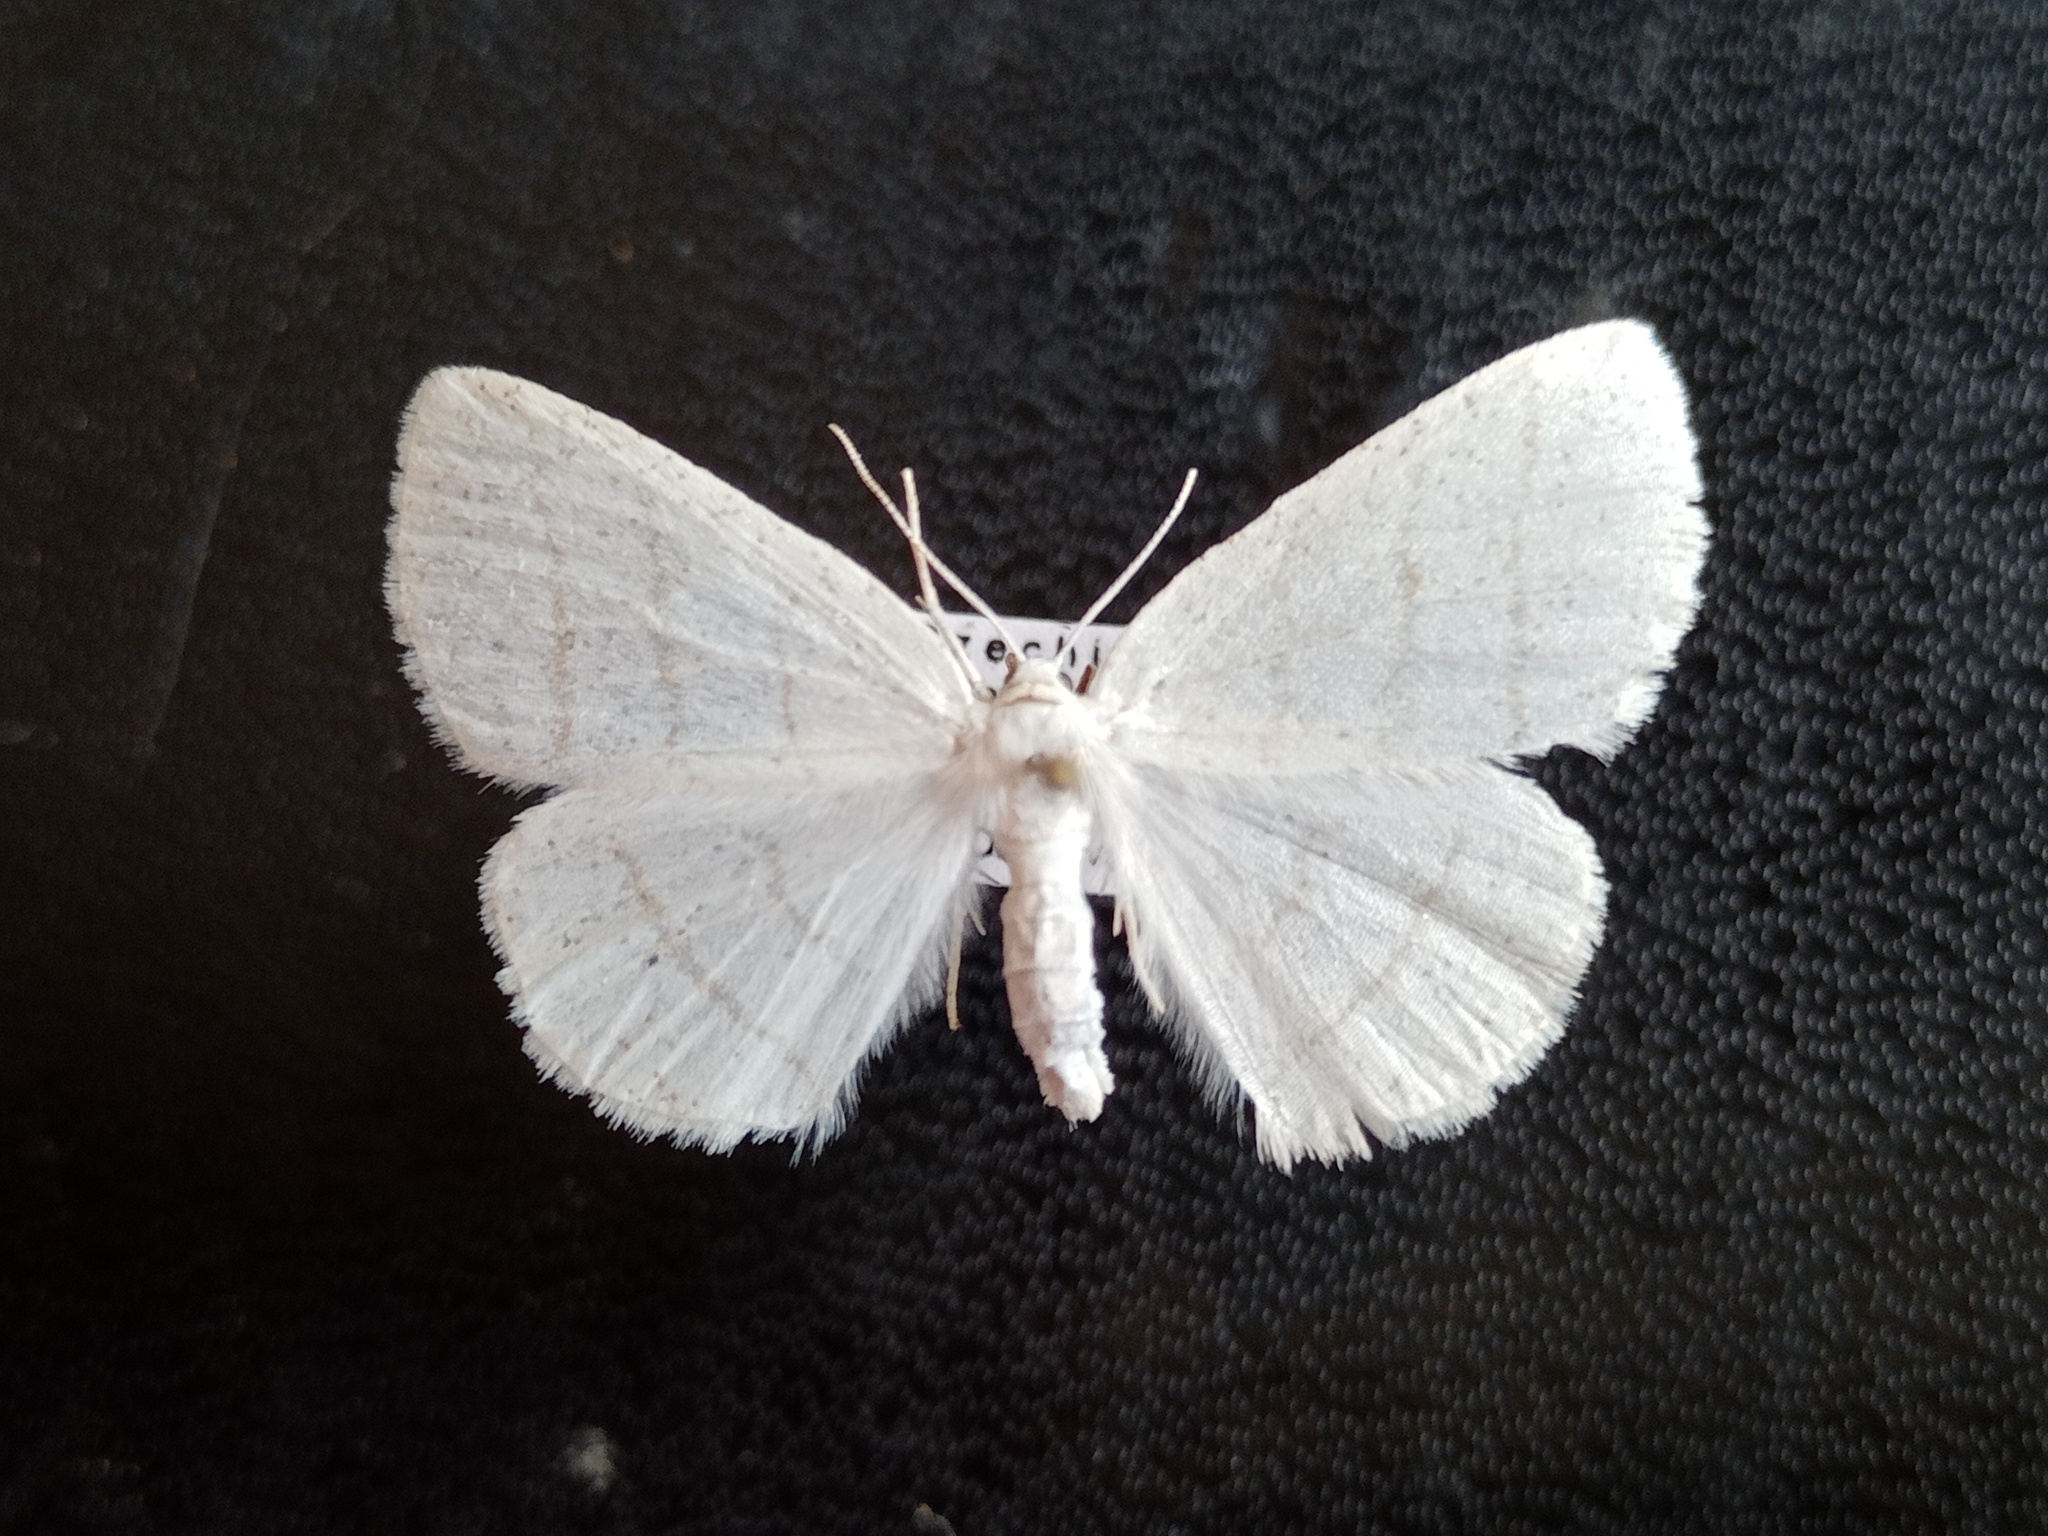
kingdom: Animalia
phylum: Arthropoda
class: Insecta
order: Lepidoptera
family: Geometridae
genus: Cabera
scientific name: Cabera pusaria
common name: Common white wave
